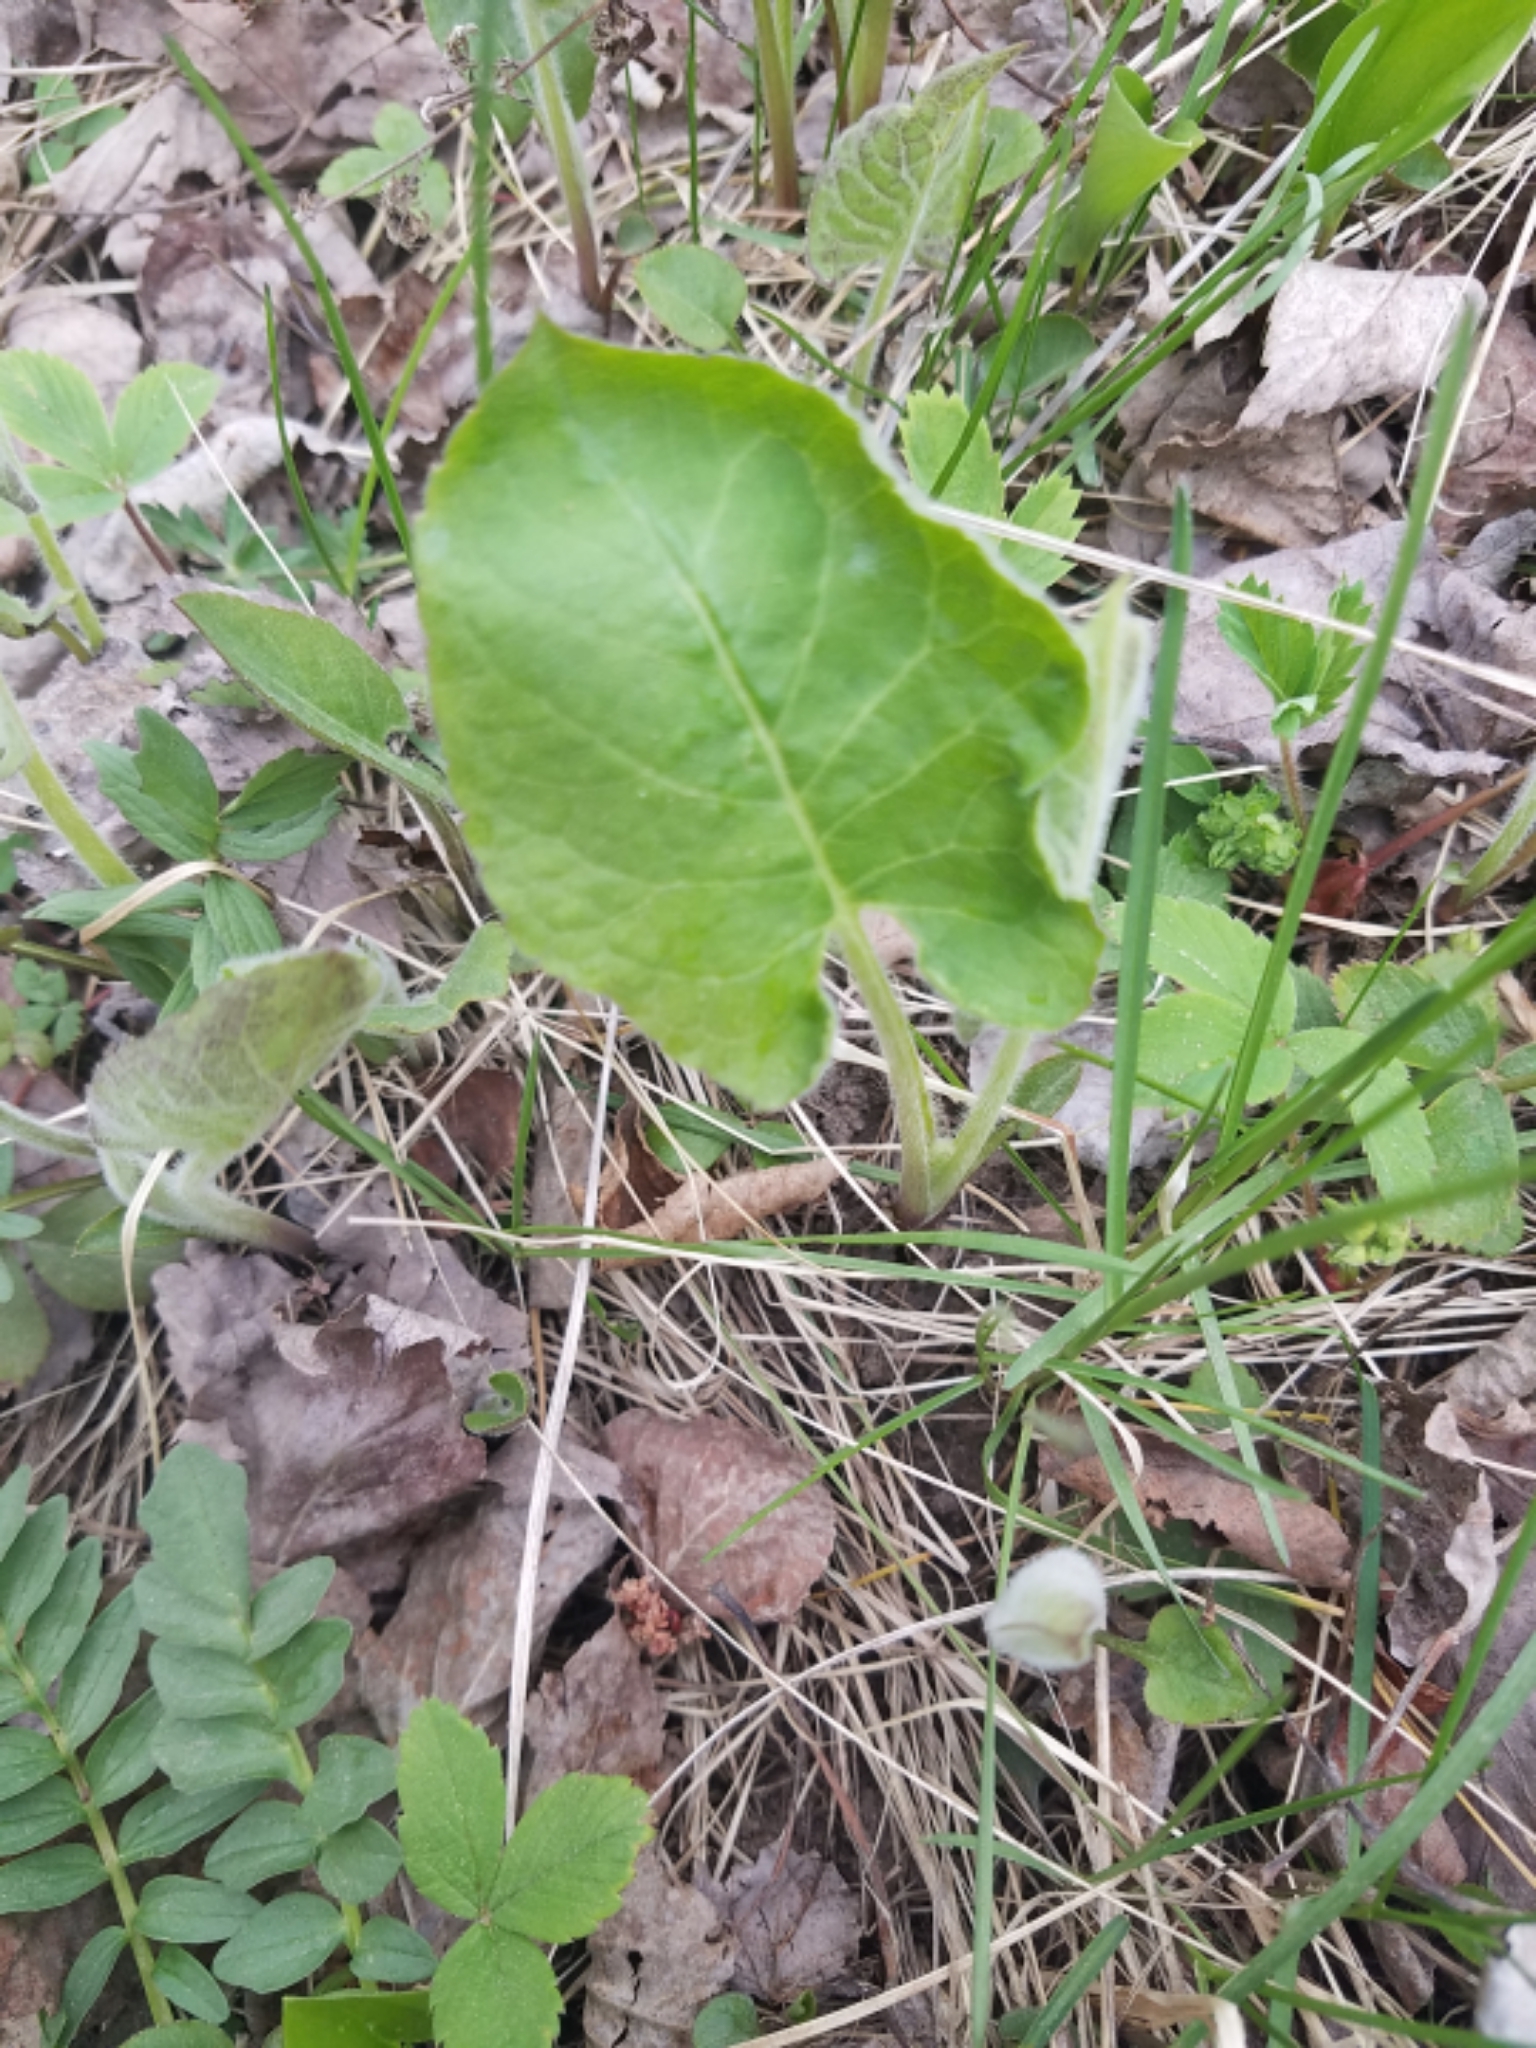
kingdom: Plantae
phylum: Tracheophyta
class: Magnoliopsida
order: Asterales
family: Asteraceae
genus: Eurybia
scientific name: Eurybia macrophylla
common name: Big-leaved aster
